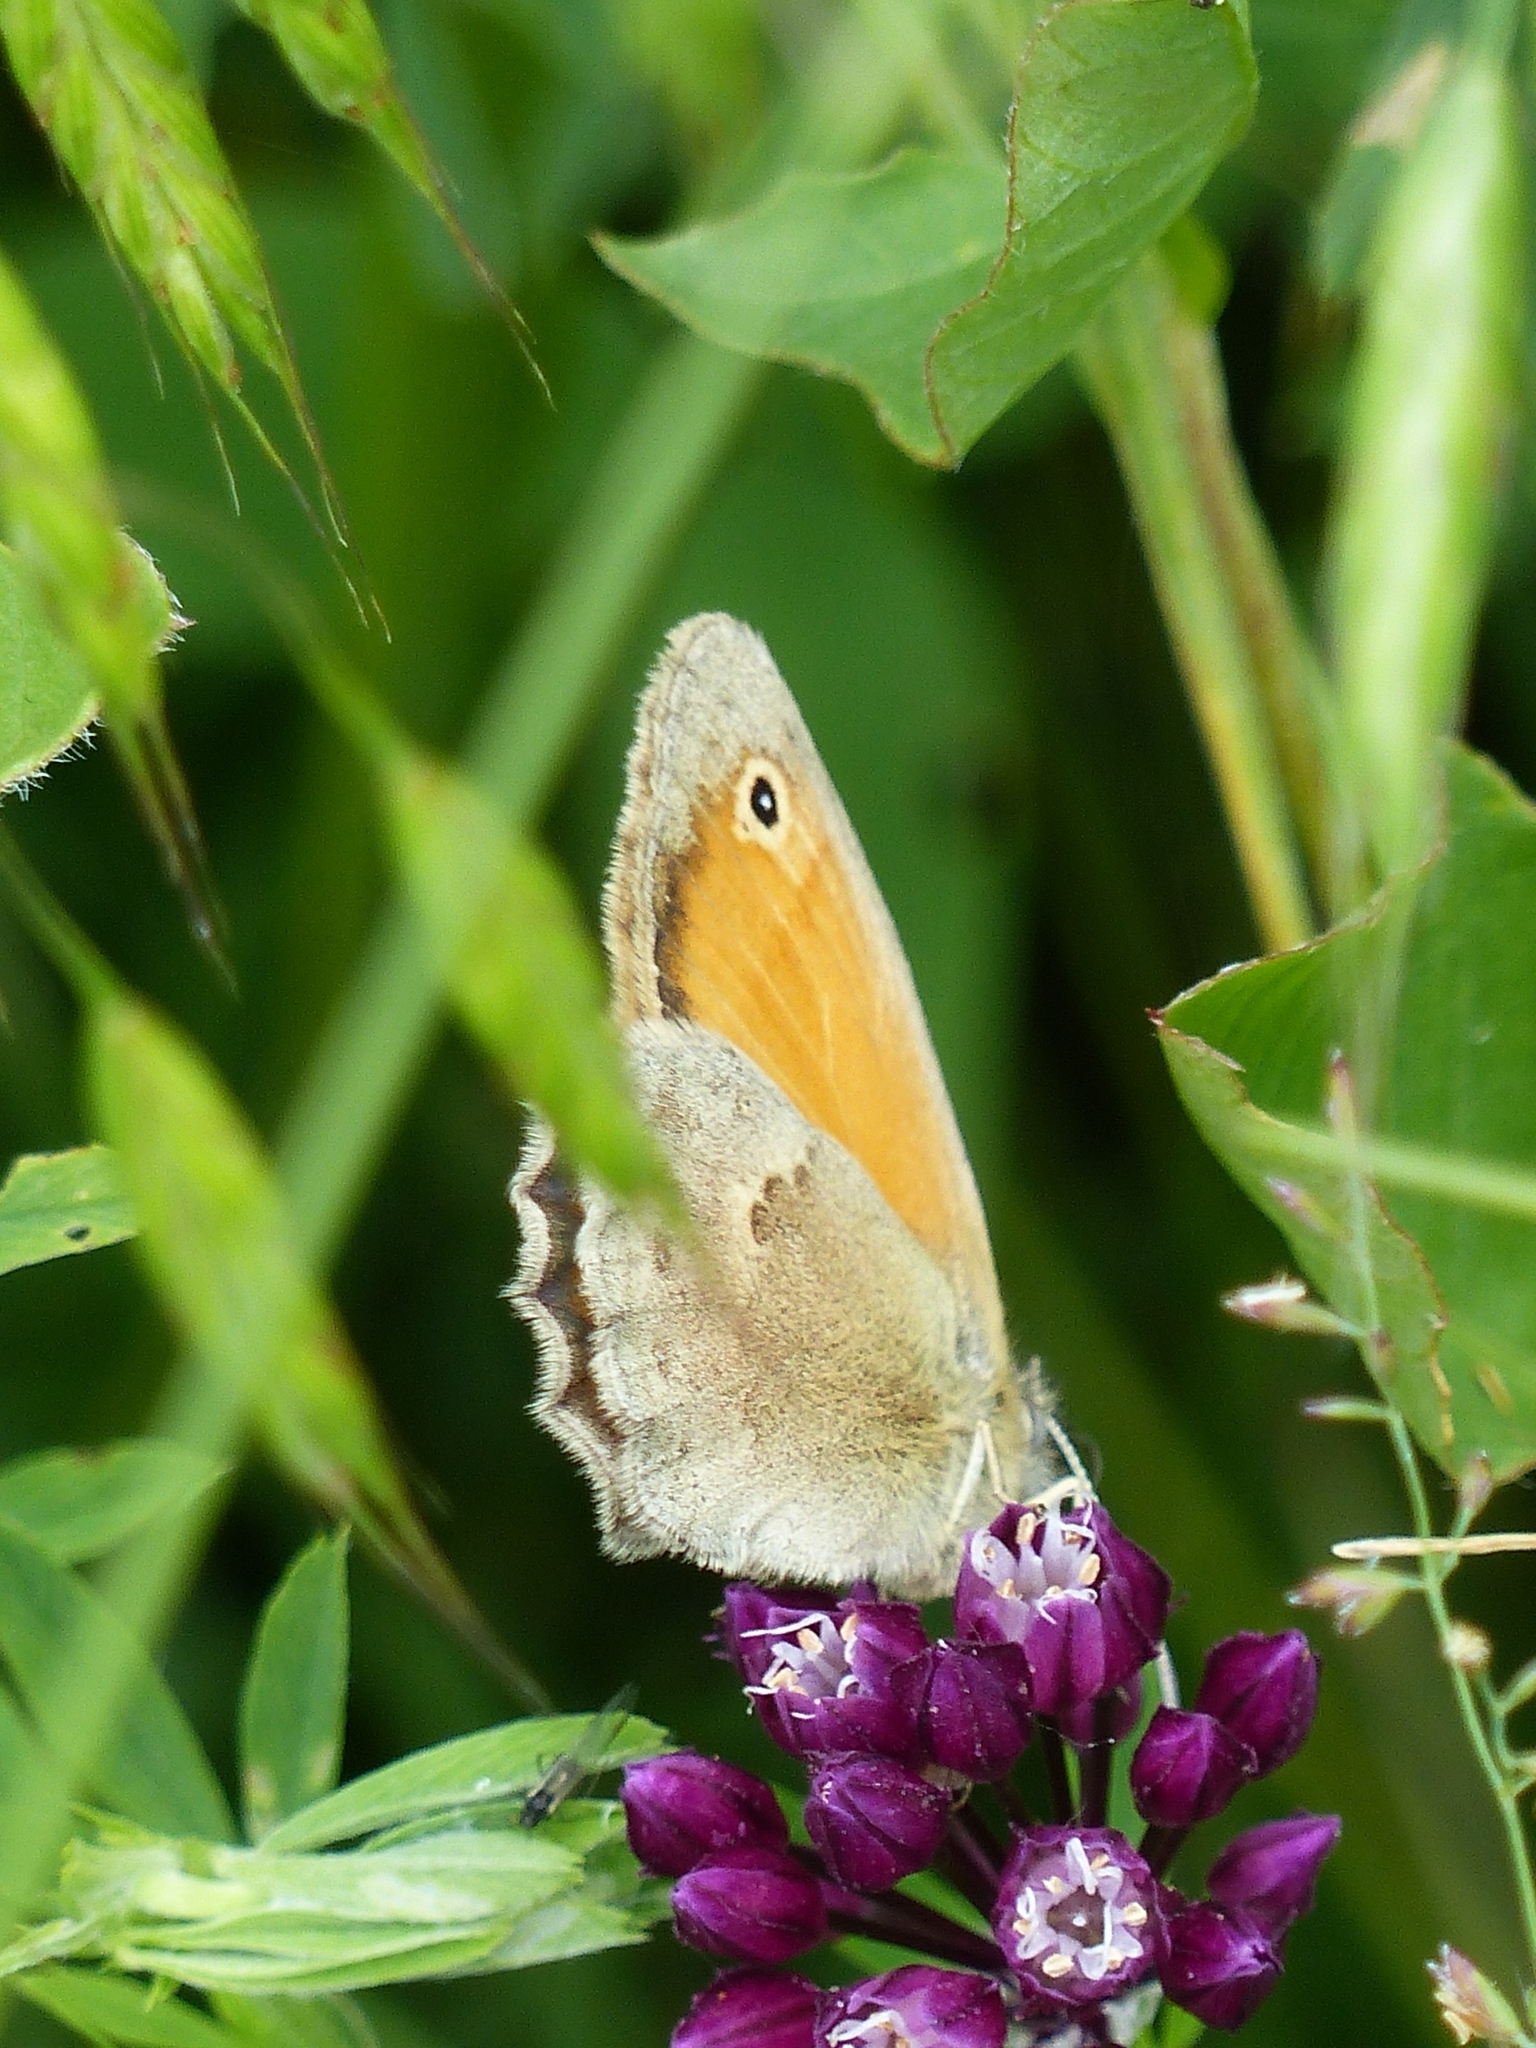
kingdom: Animalia
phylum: Arthropoda
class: Insecta
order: Lepidoptera
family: Nymphalidae
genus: Coenonympha
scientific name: Coenonympha pamphilus
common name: Small heath
